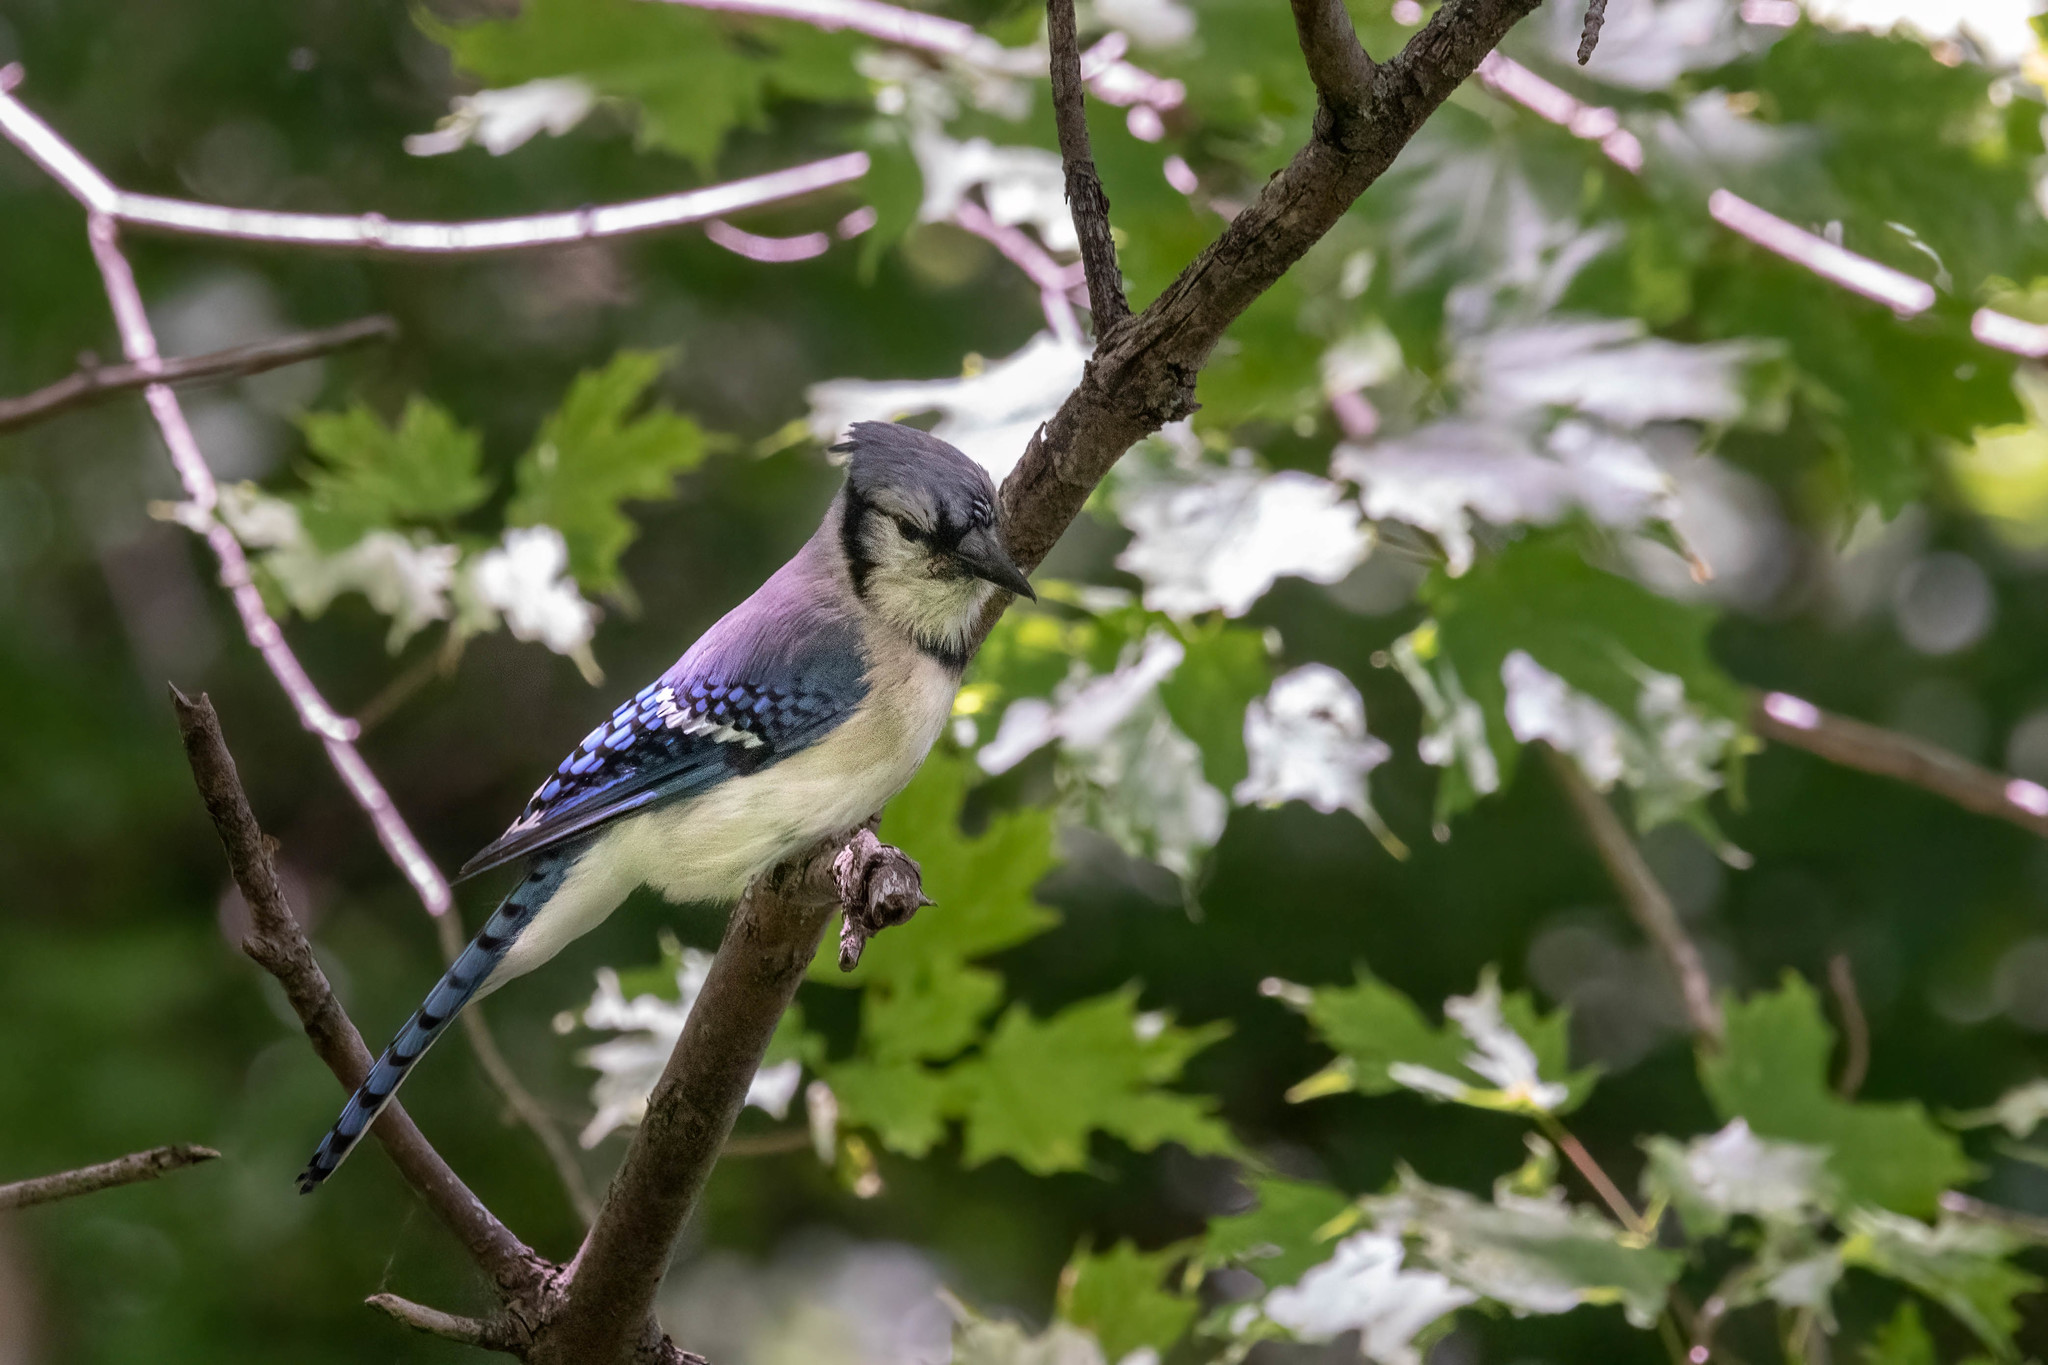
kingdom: Animalia
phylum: Chordata
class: Aves
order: Passeriformes
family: Corvidae
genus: Cyanocitta
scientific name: Cyanocitta cristata
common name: Blue jay
